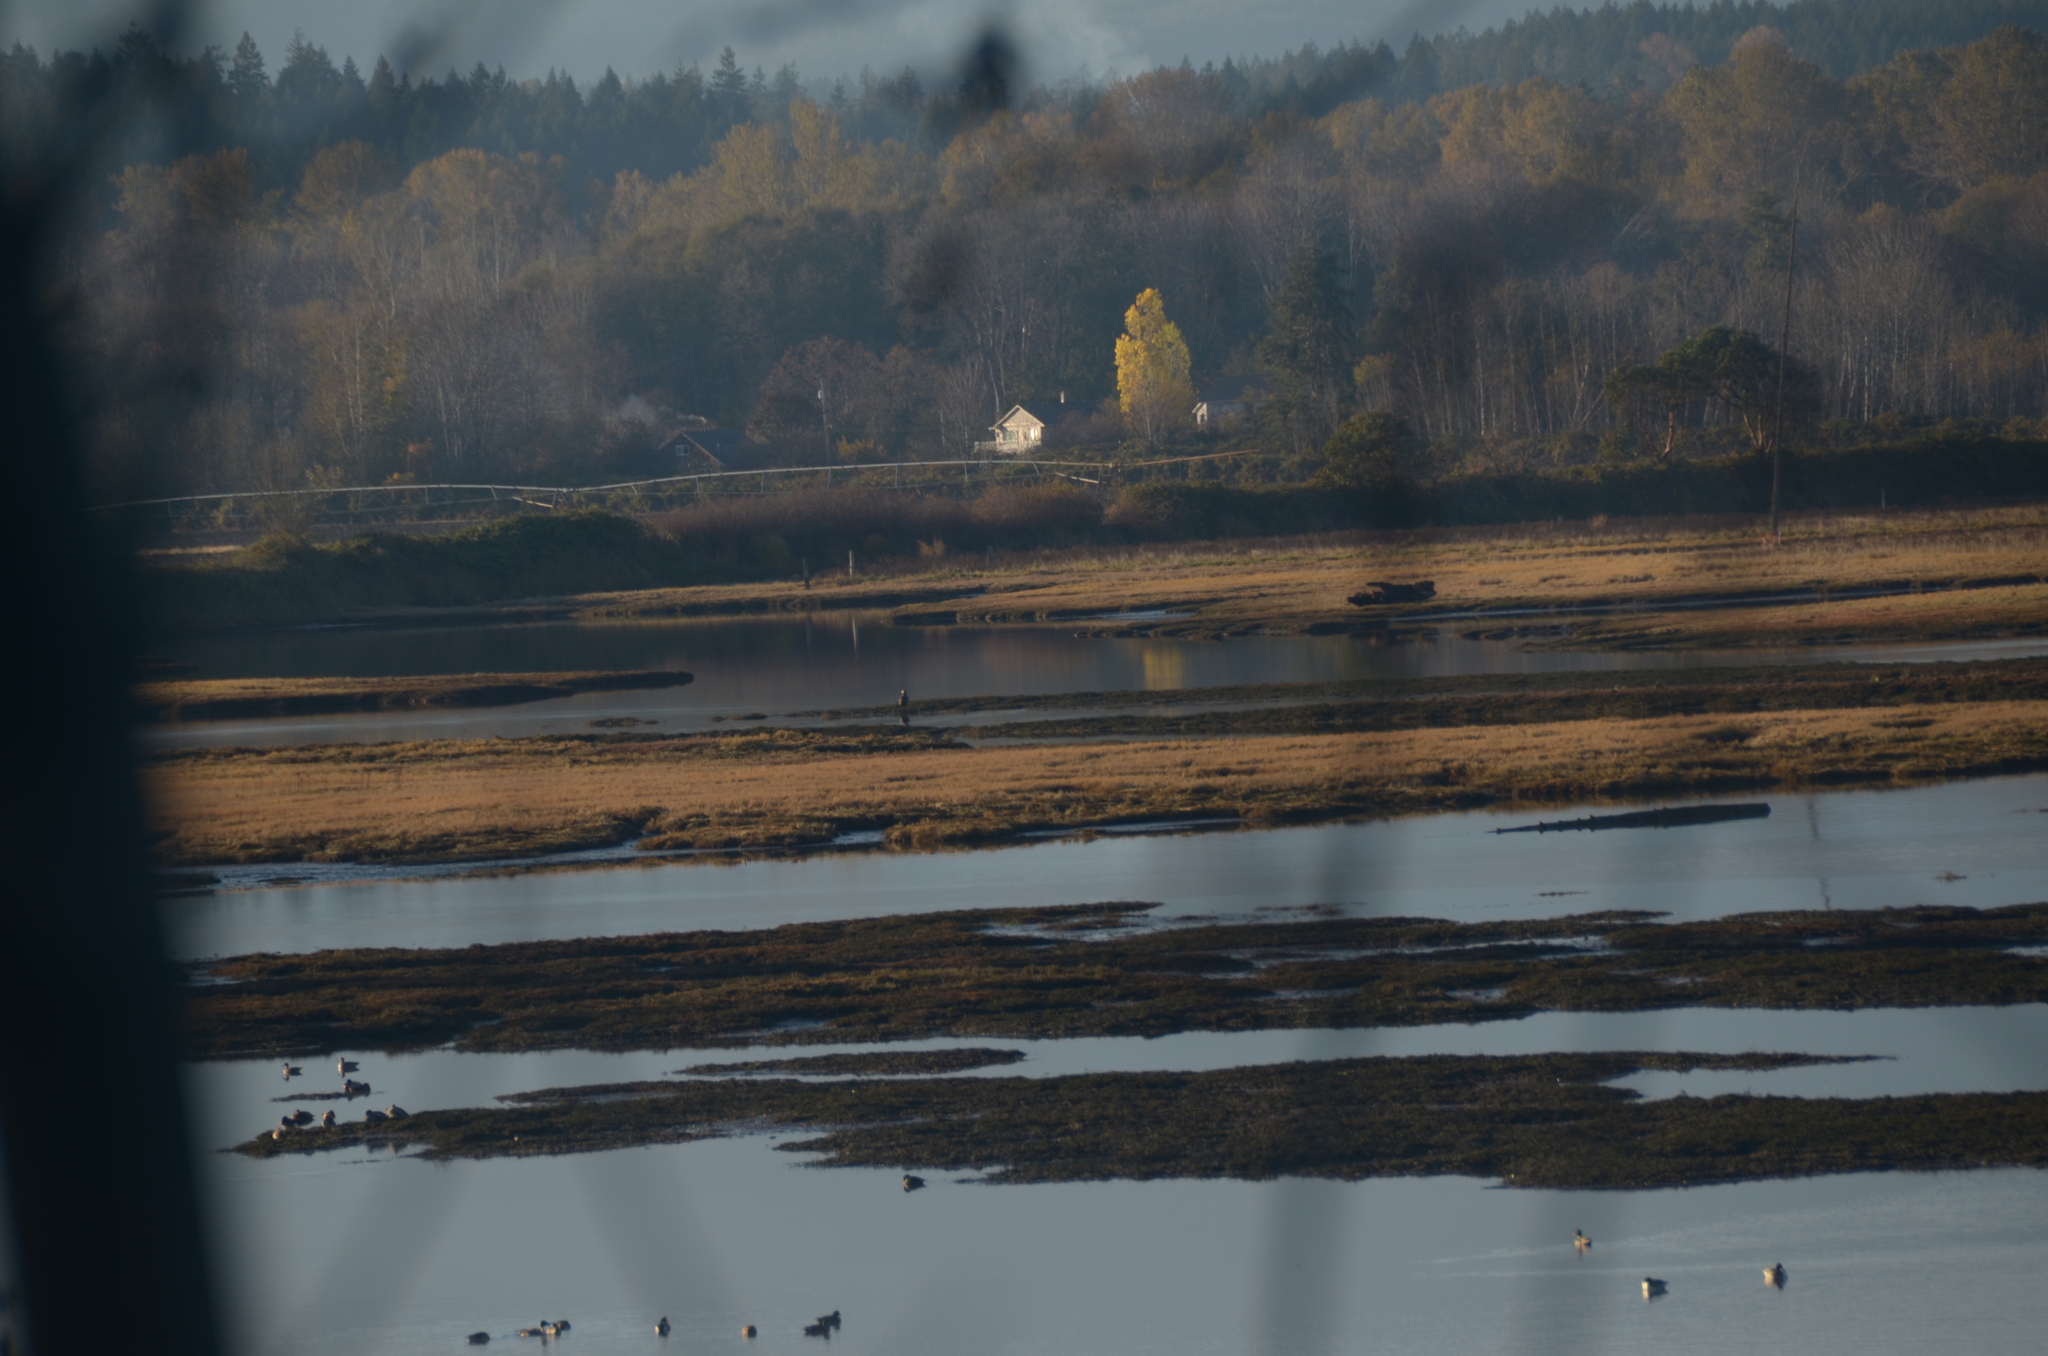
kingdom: Animalia
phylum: Chordata
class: Aves
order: Pelecaniformes
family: Ardeidae
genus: Ardea
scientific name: Ardea herodias
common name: Great blue heron
